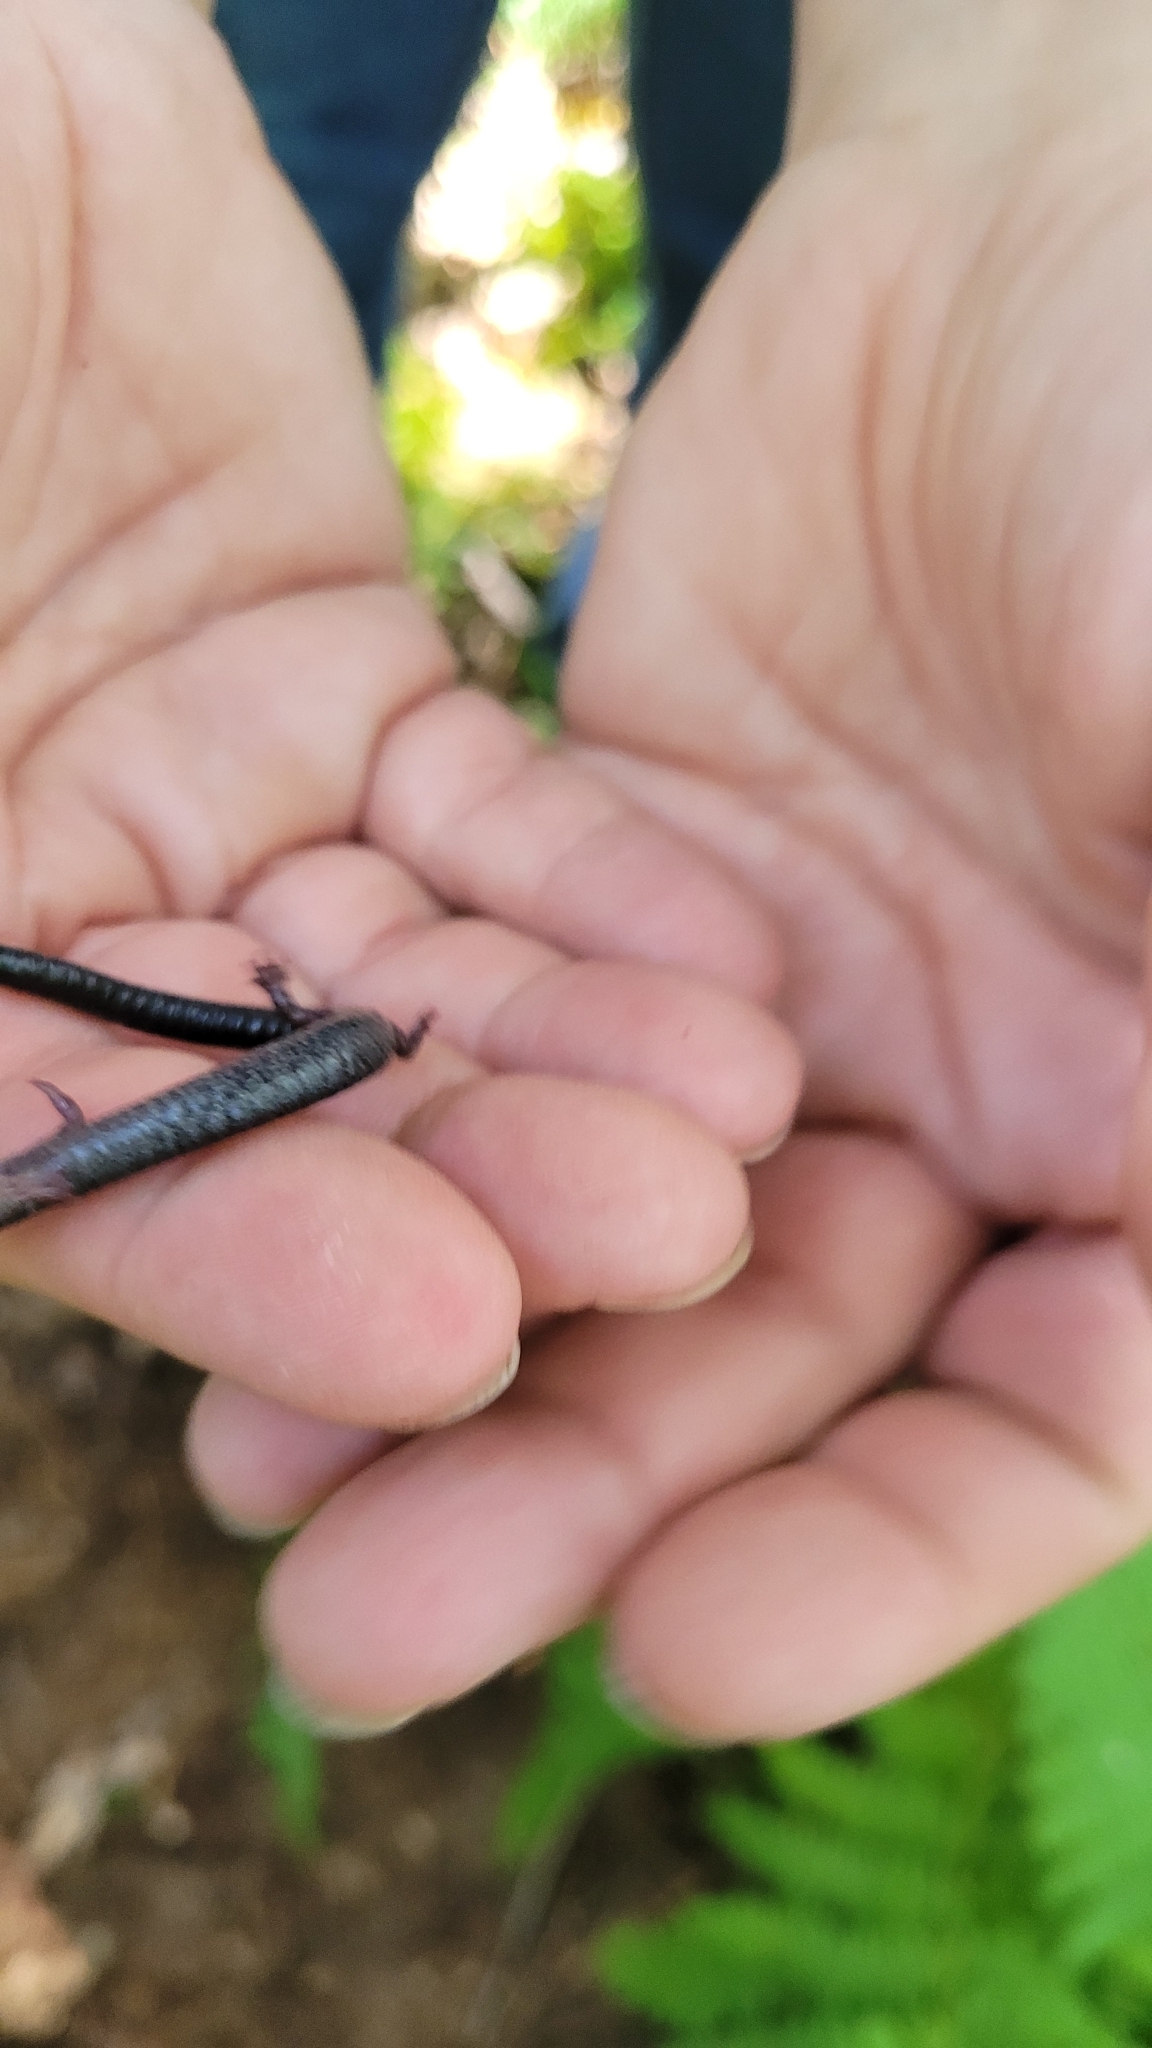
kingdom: Animalia
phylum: Chordata
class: Amphibia
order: Caudata
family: Plethodontidae
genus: Plethodon
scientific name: Plethodon cinereus
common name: Redback salamander
